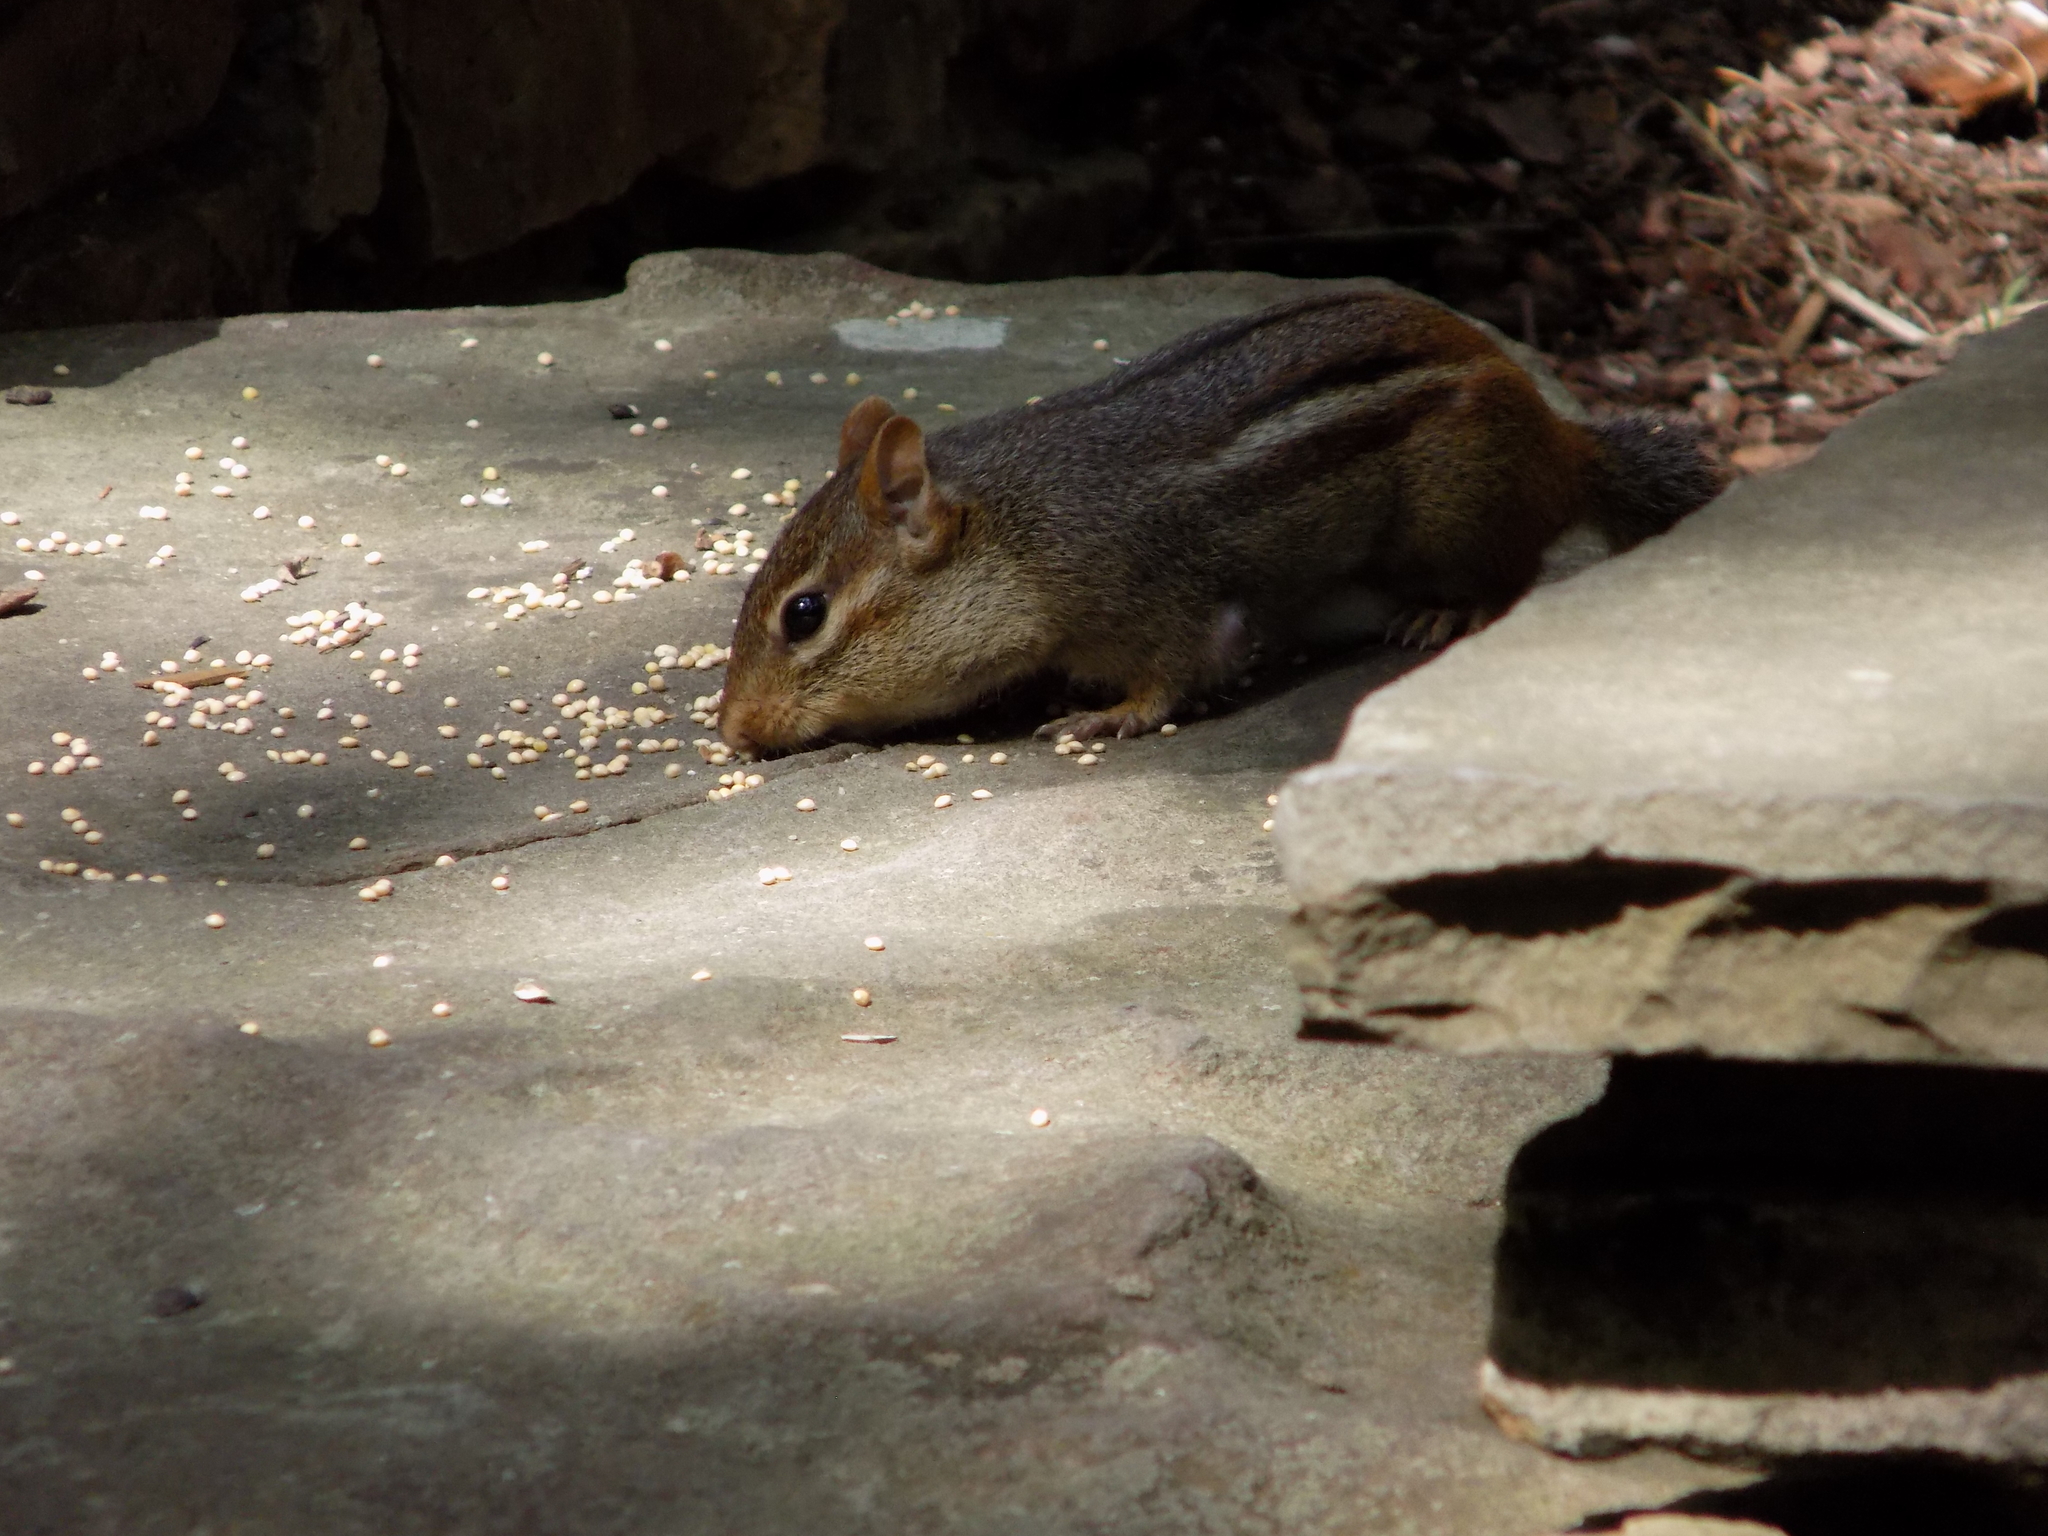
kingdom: Animalia
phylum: Chordata
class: Mammalia
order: Rodentia
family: Sciuridae
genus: Tamias
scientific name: Tamias striatus
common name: Eastern chipmunk
